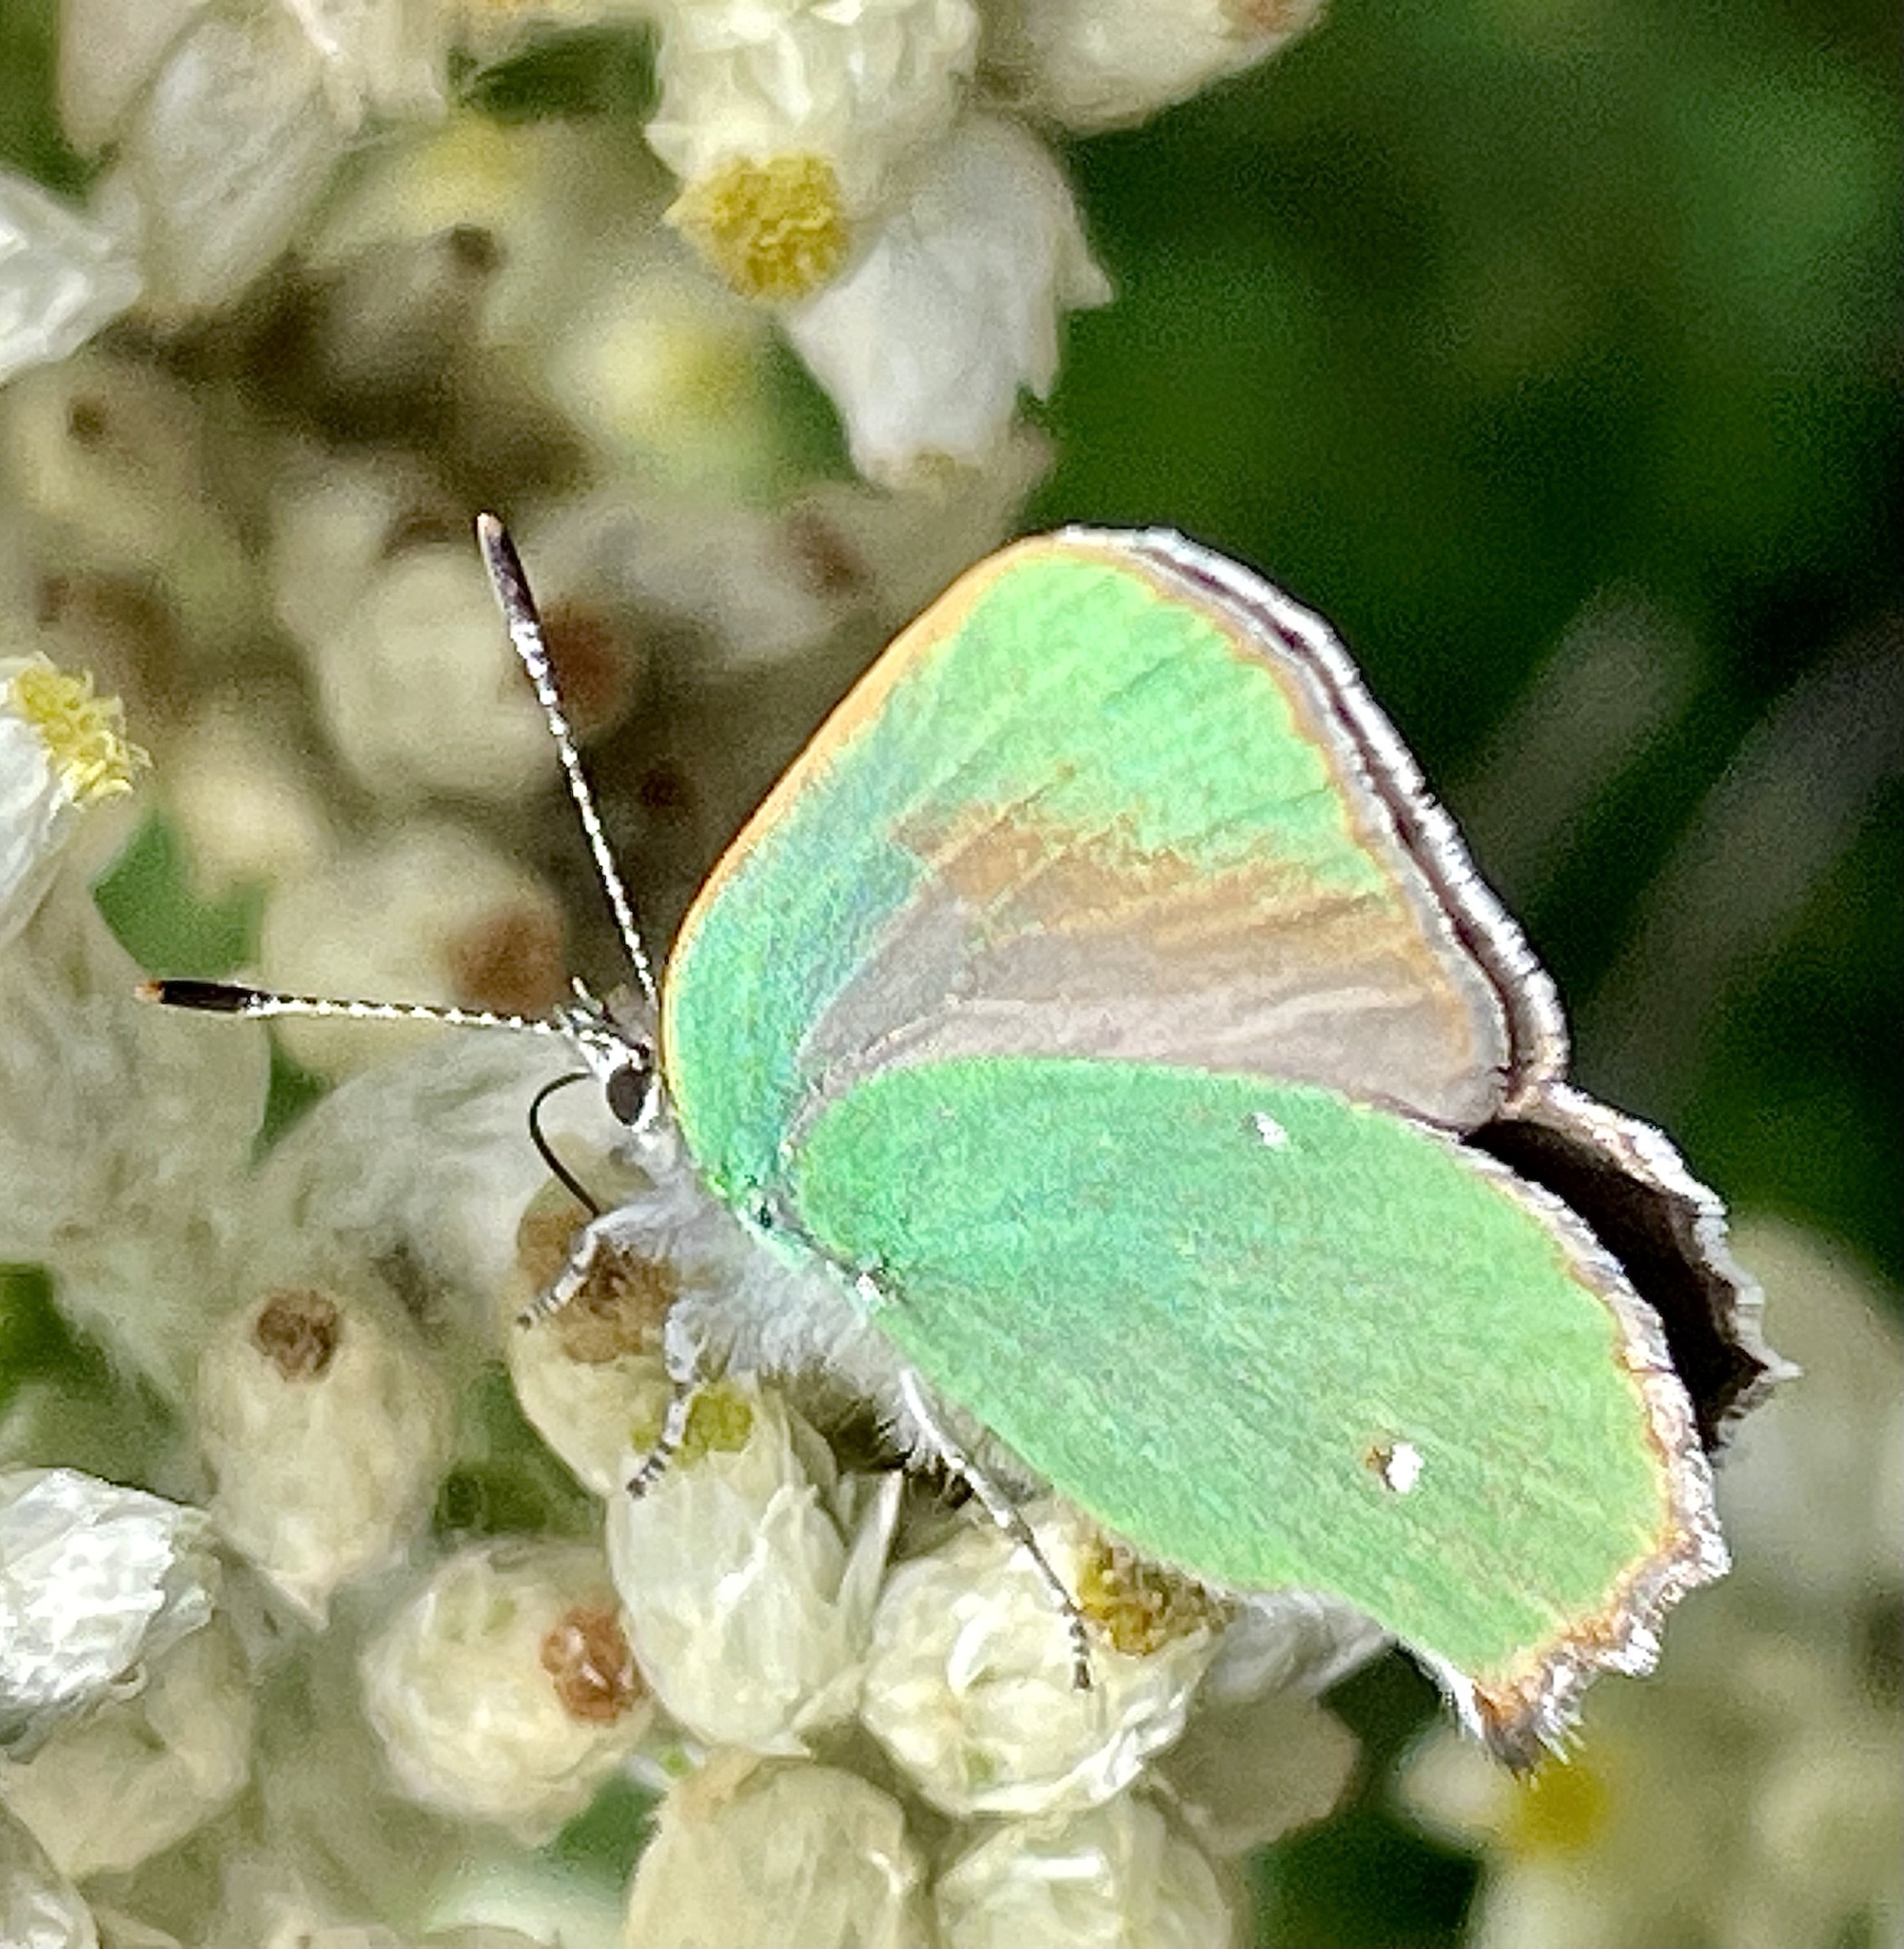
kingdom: Animalia
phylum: Arthropoda
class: Insecta
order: Lepidoptera
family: Lycaenidae
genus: Callophrys
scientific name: Callophrys dumetorum
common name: Bramble hairstreak
